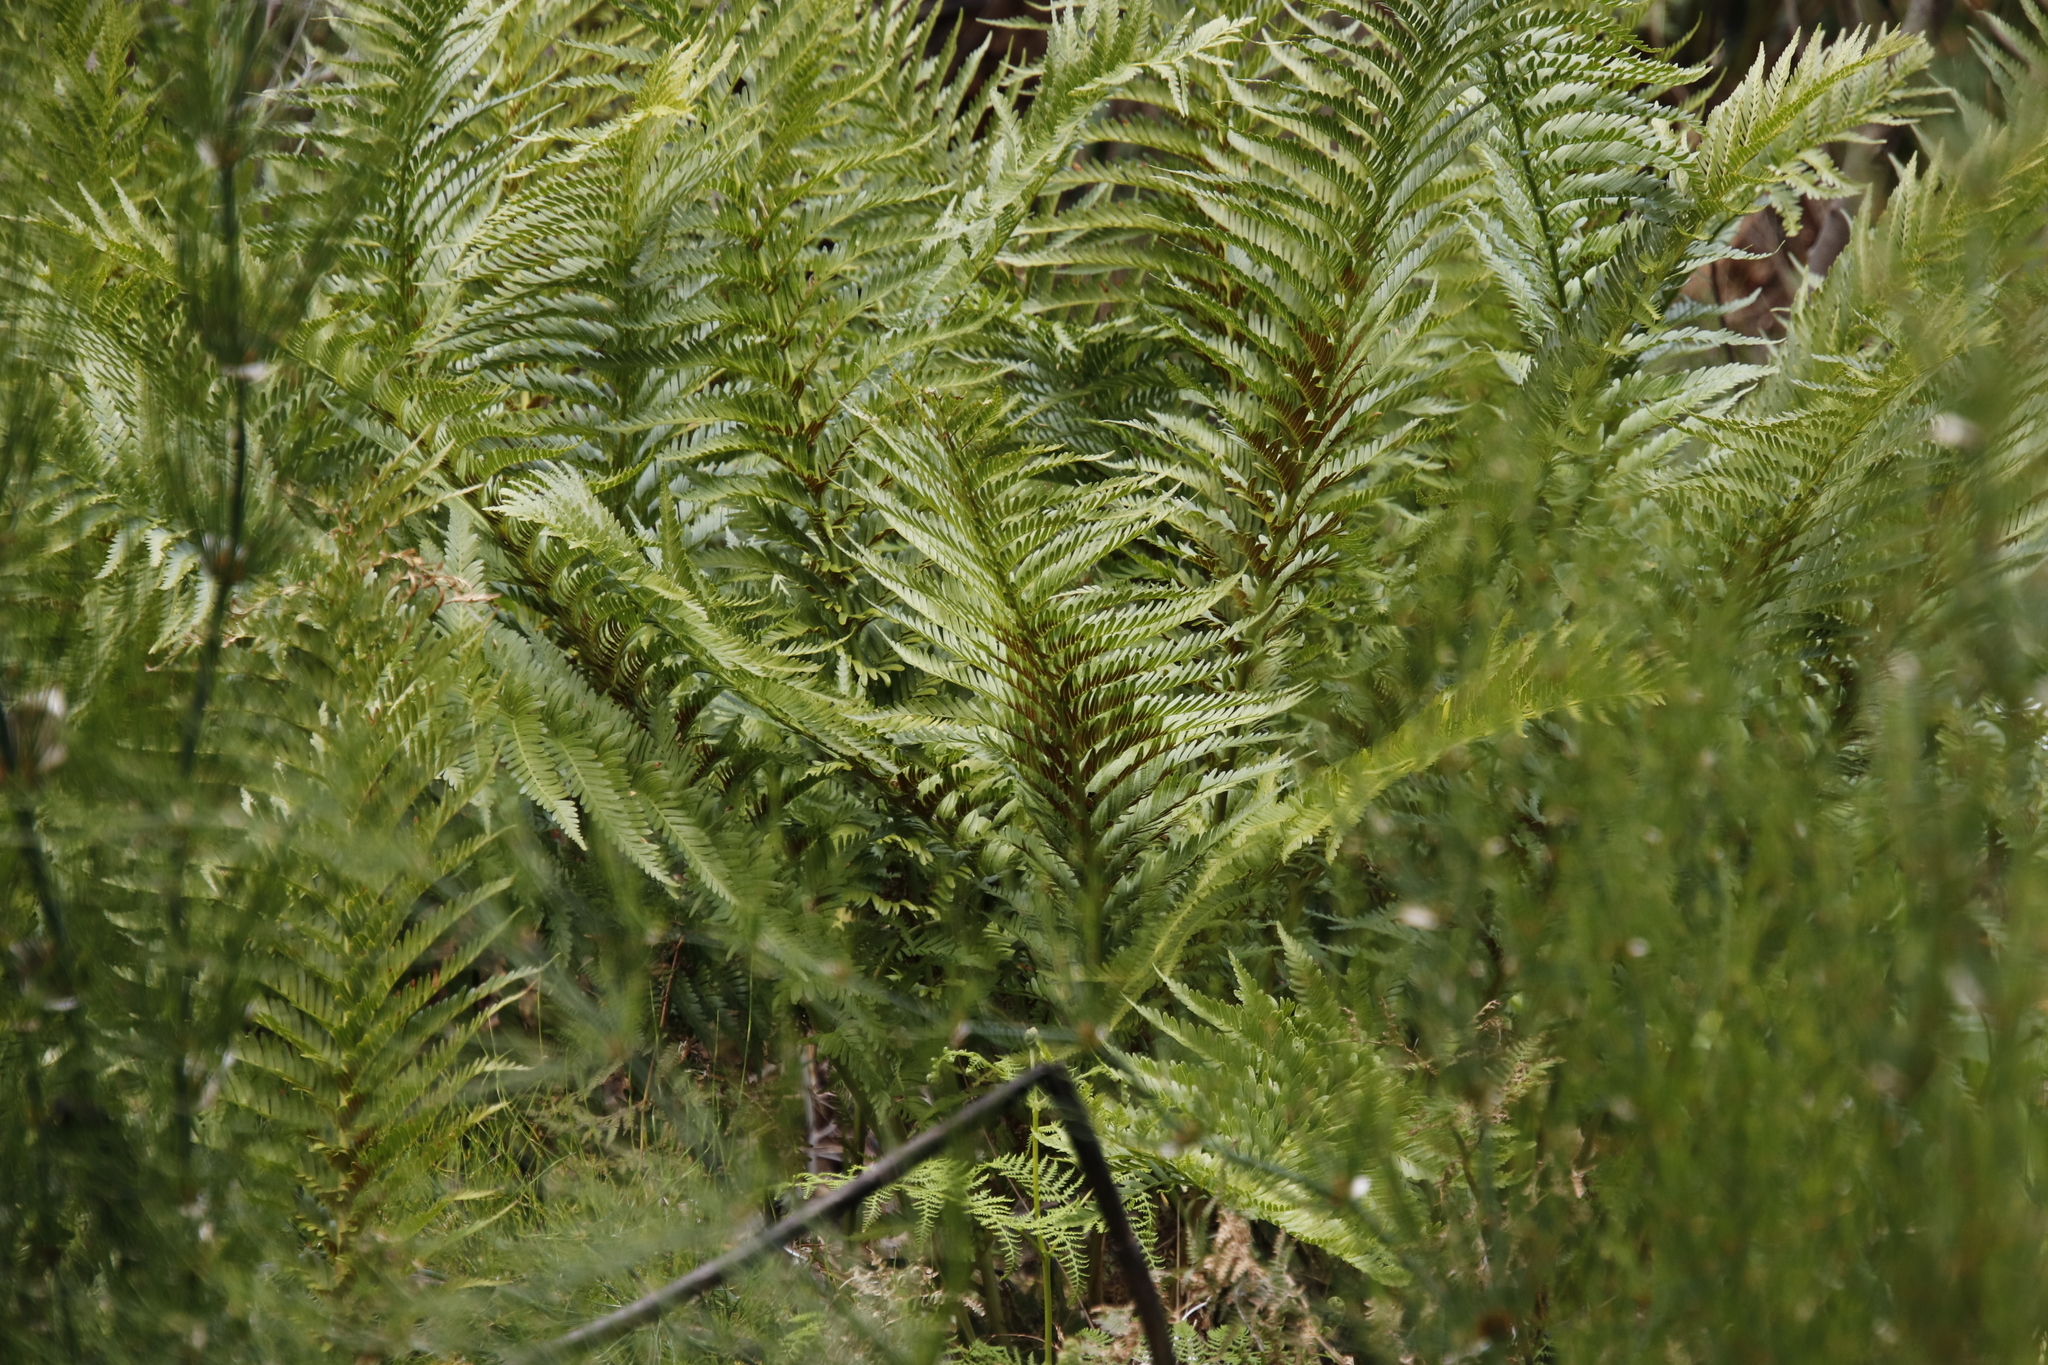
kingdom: Plantae
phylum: Tracheophyta
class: Polypodiopsida
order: Osmundales
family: Osmundaceae
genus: Todea
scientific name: Todea barbara
